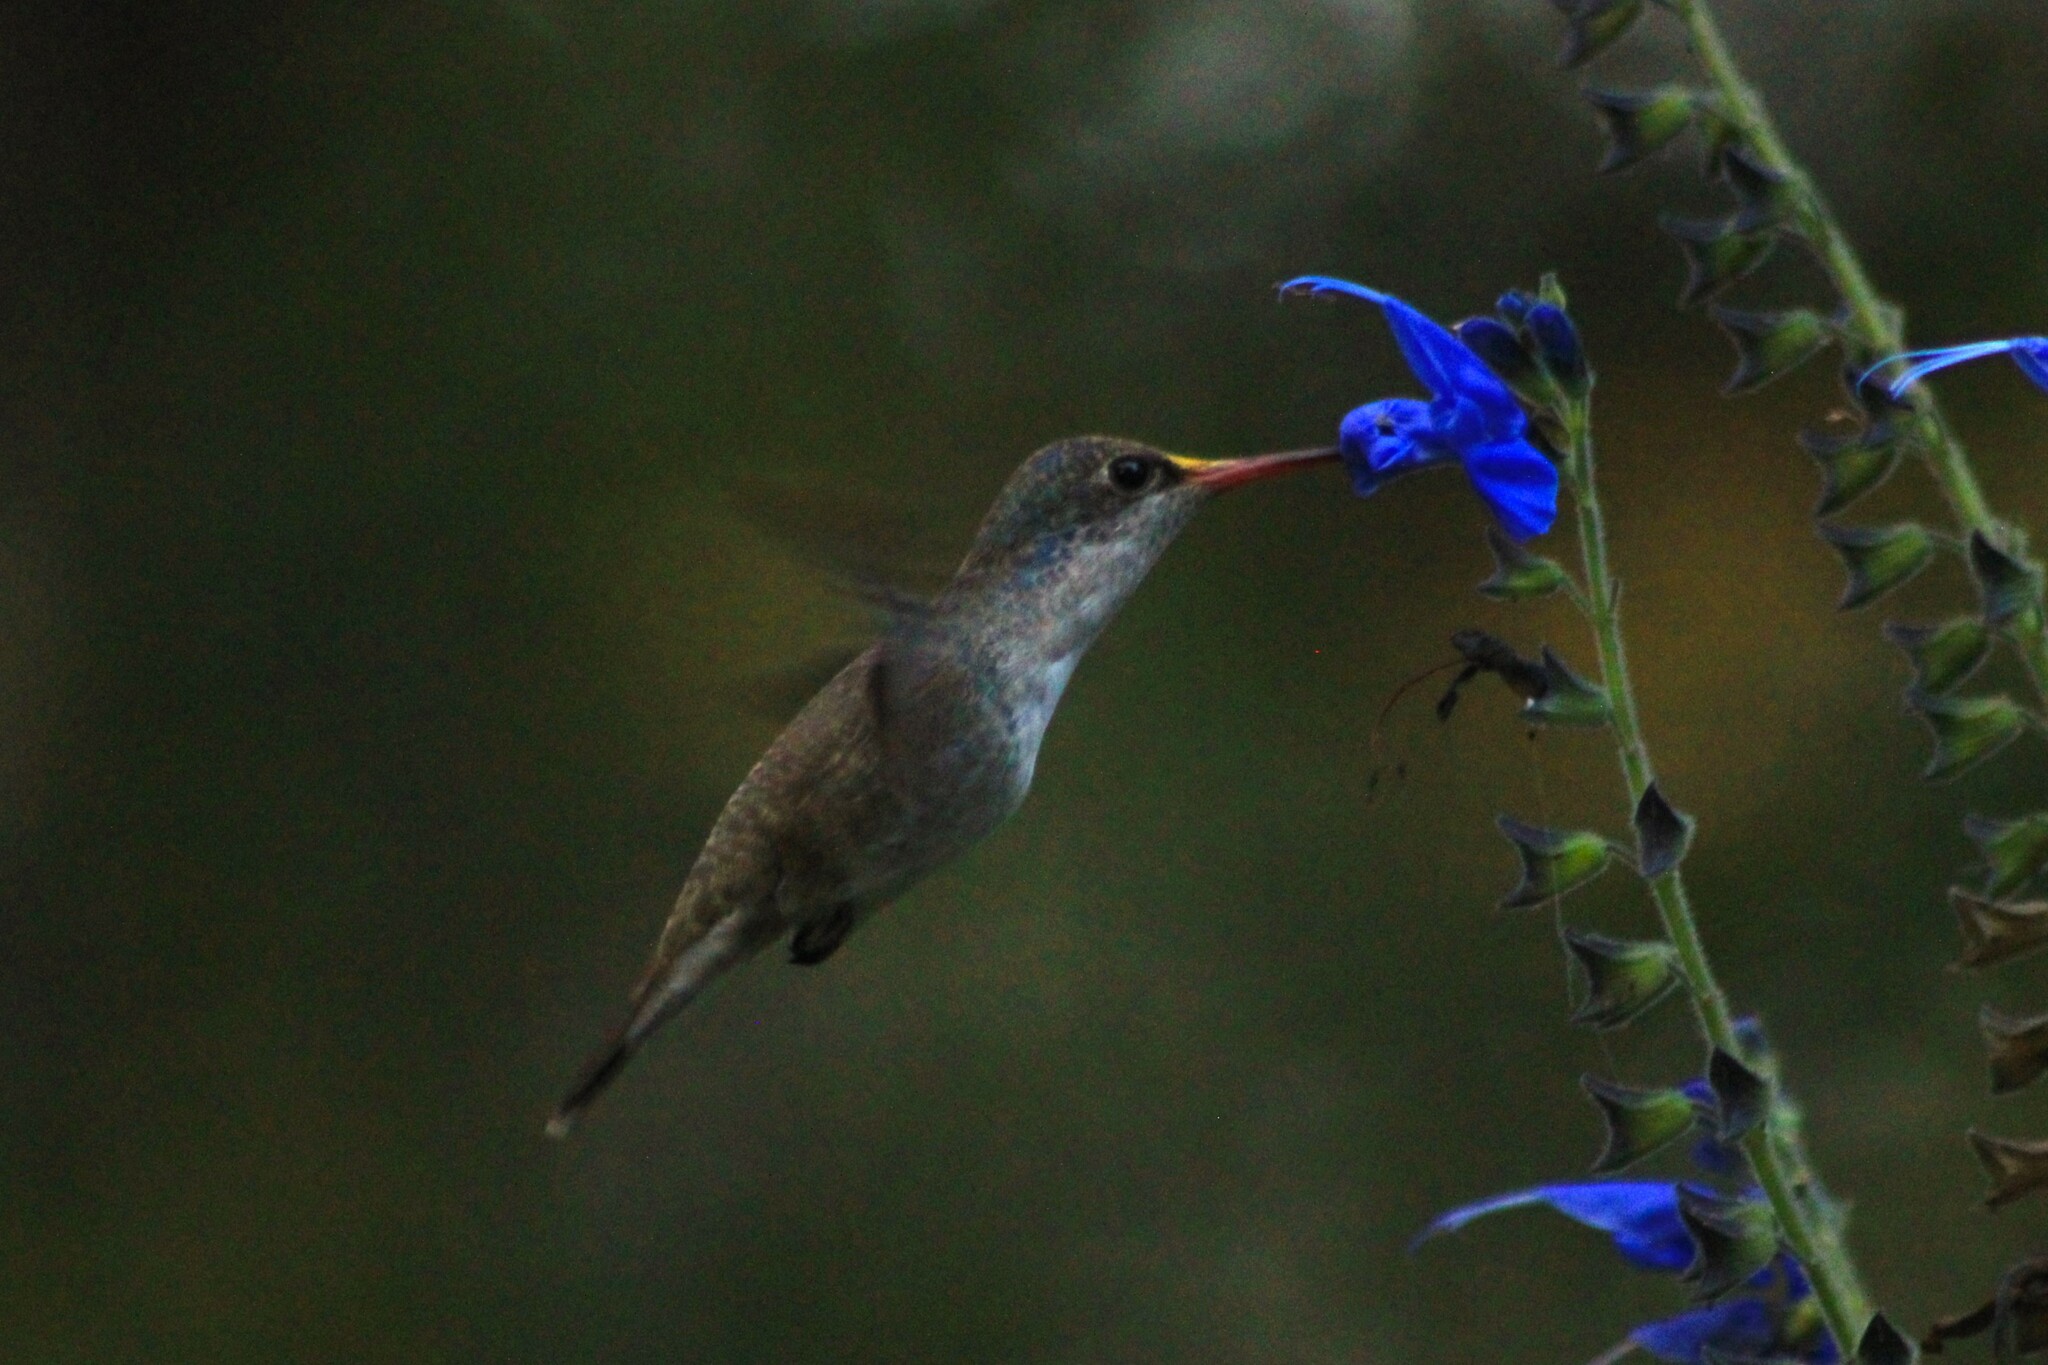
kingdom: Animalia
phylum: Chordata
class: Aves
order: Apodiformes
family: Trochilidae
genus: Leucolia
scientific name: Leucolia violiceps
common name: Violet-crowned hummingbird
